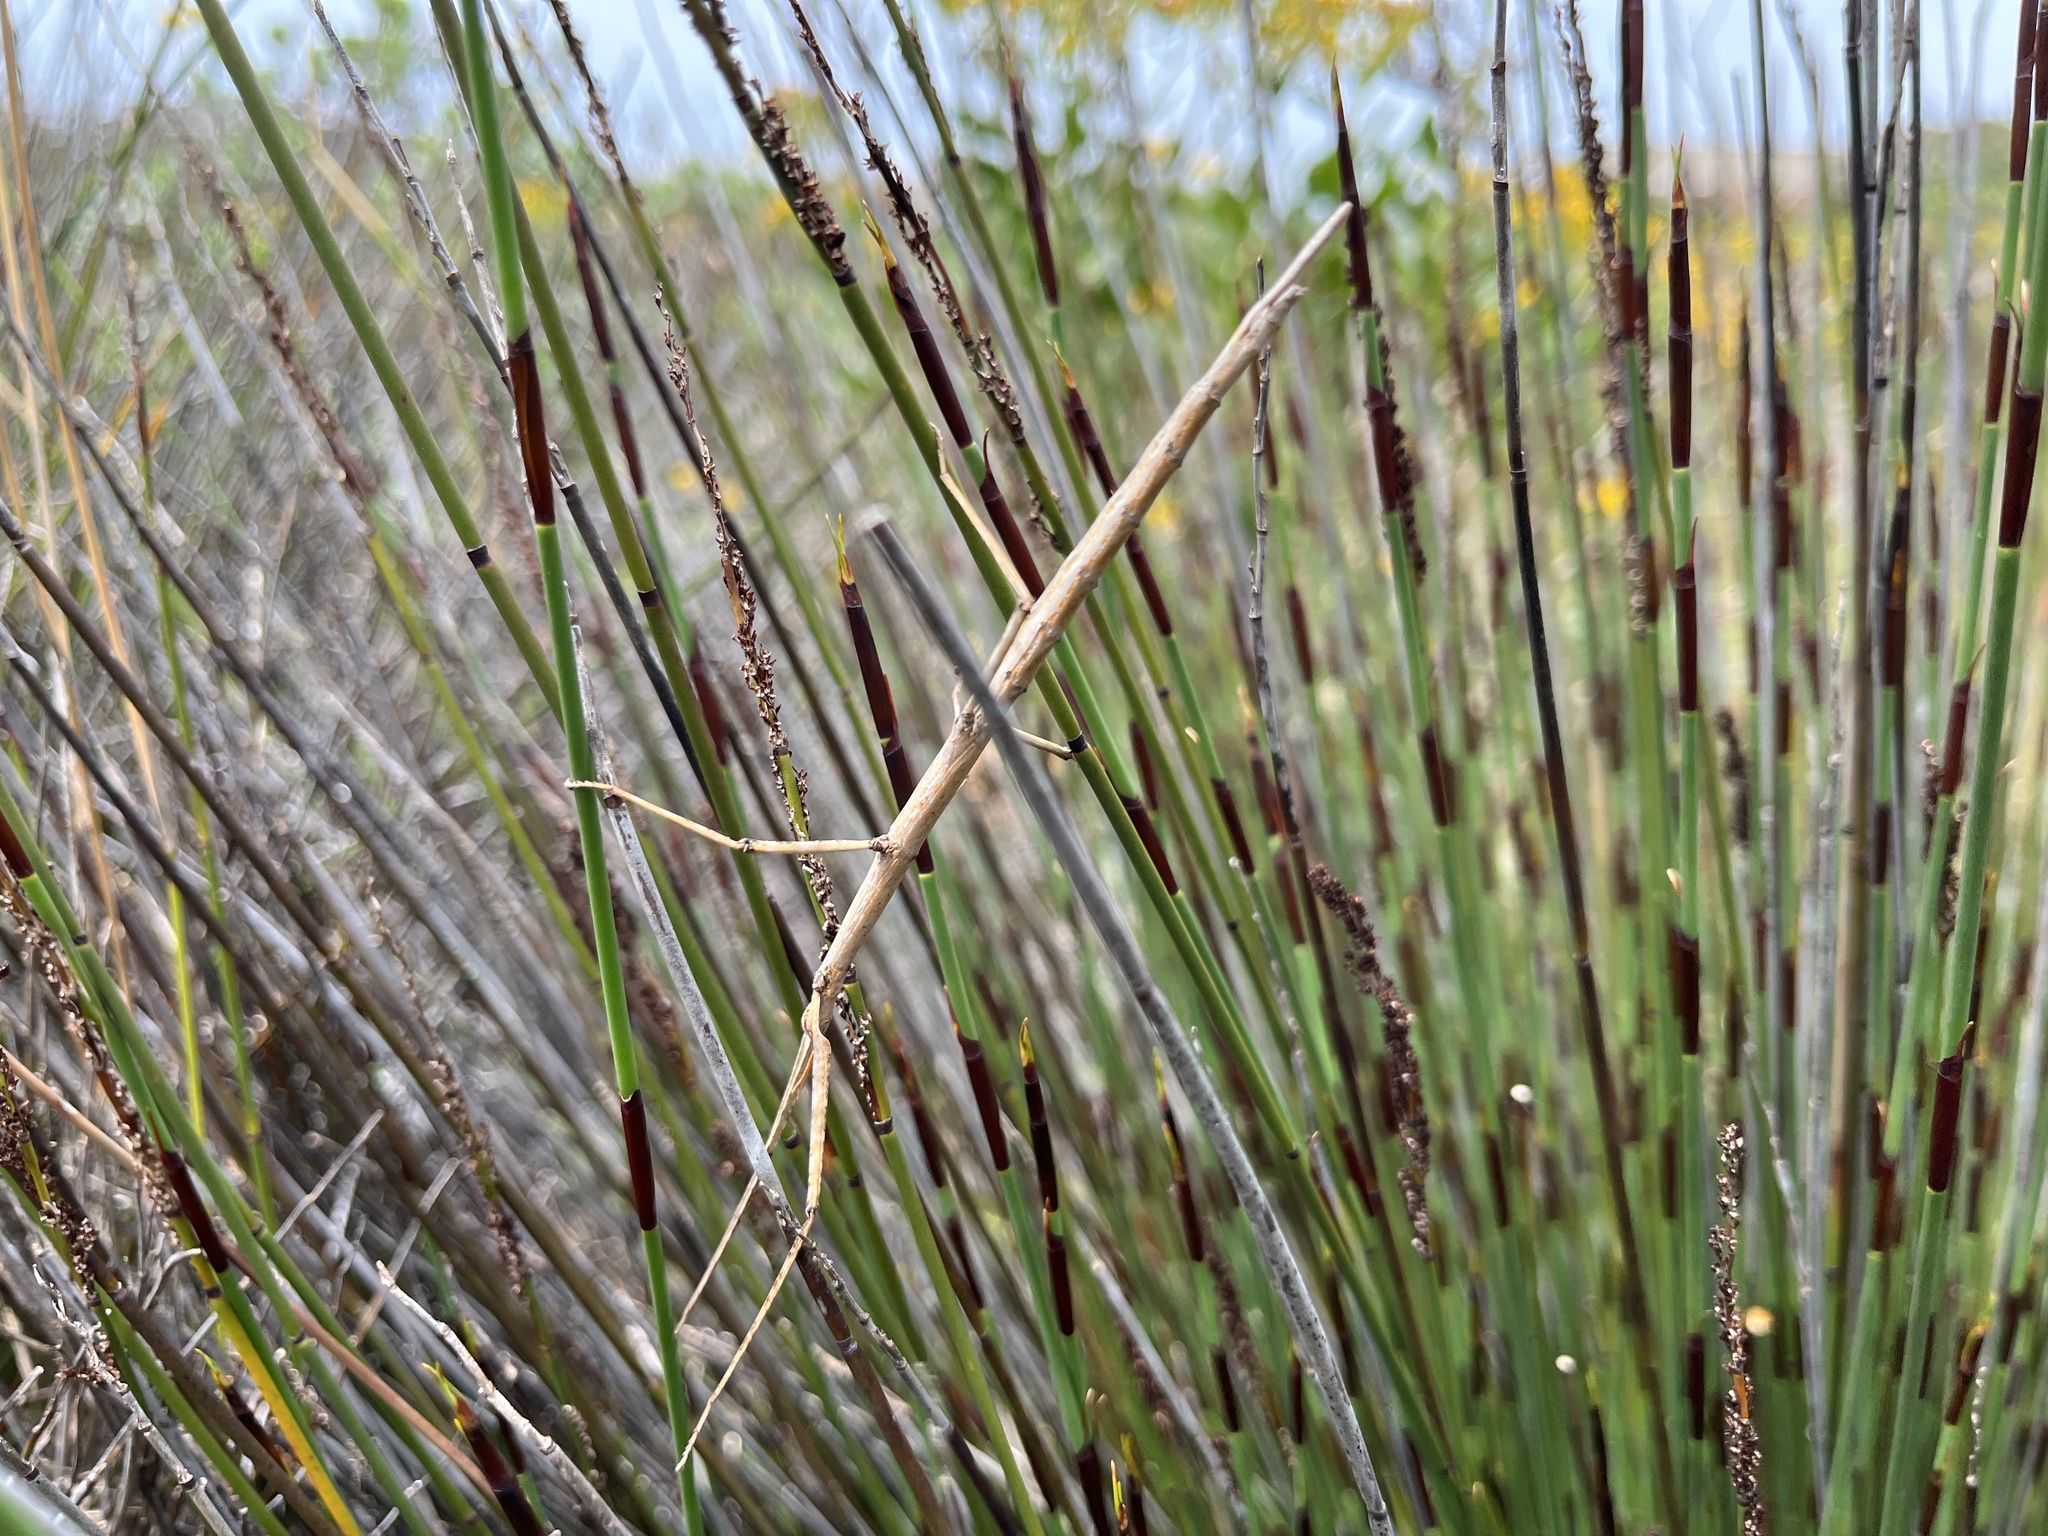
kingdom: Animalia
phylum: Arthropoda
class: Insecta
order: Phasmida
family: Bacillidae
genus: Phalces
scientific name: Phalces brevis
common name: Cape stick insect
